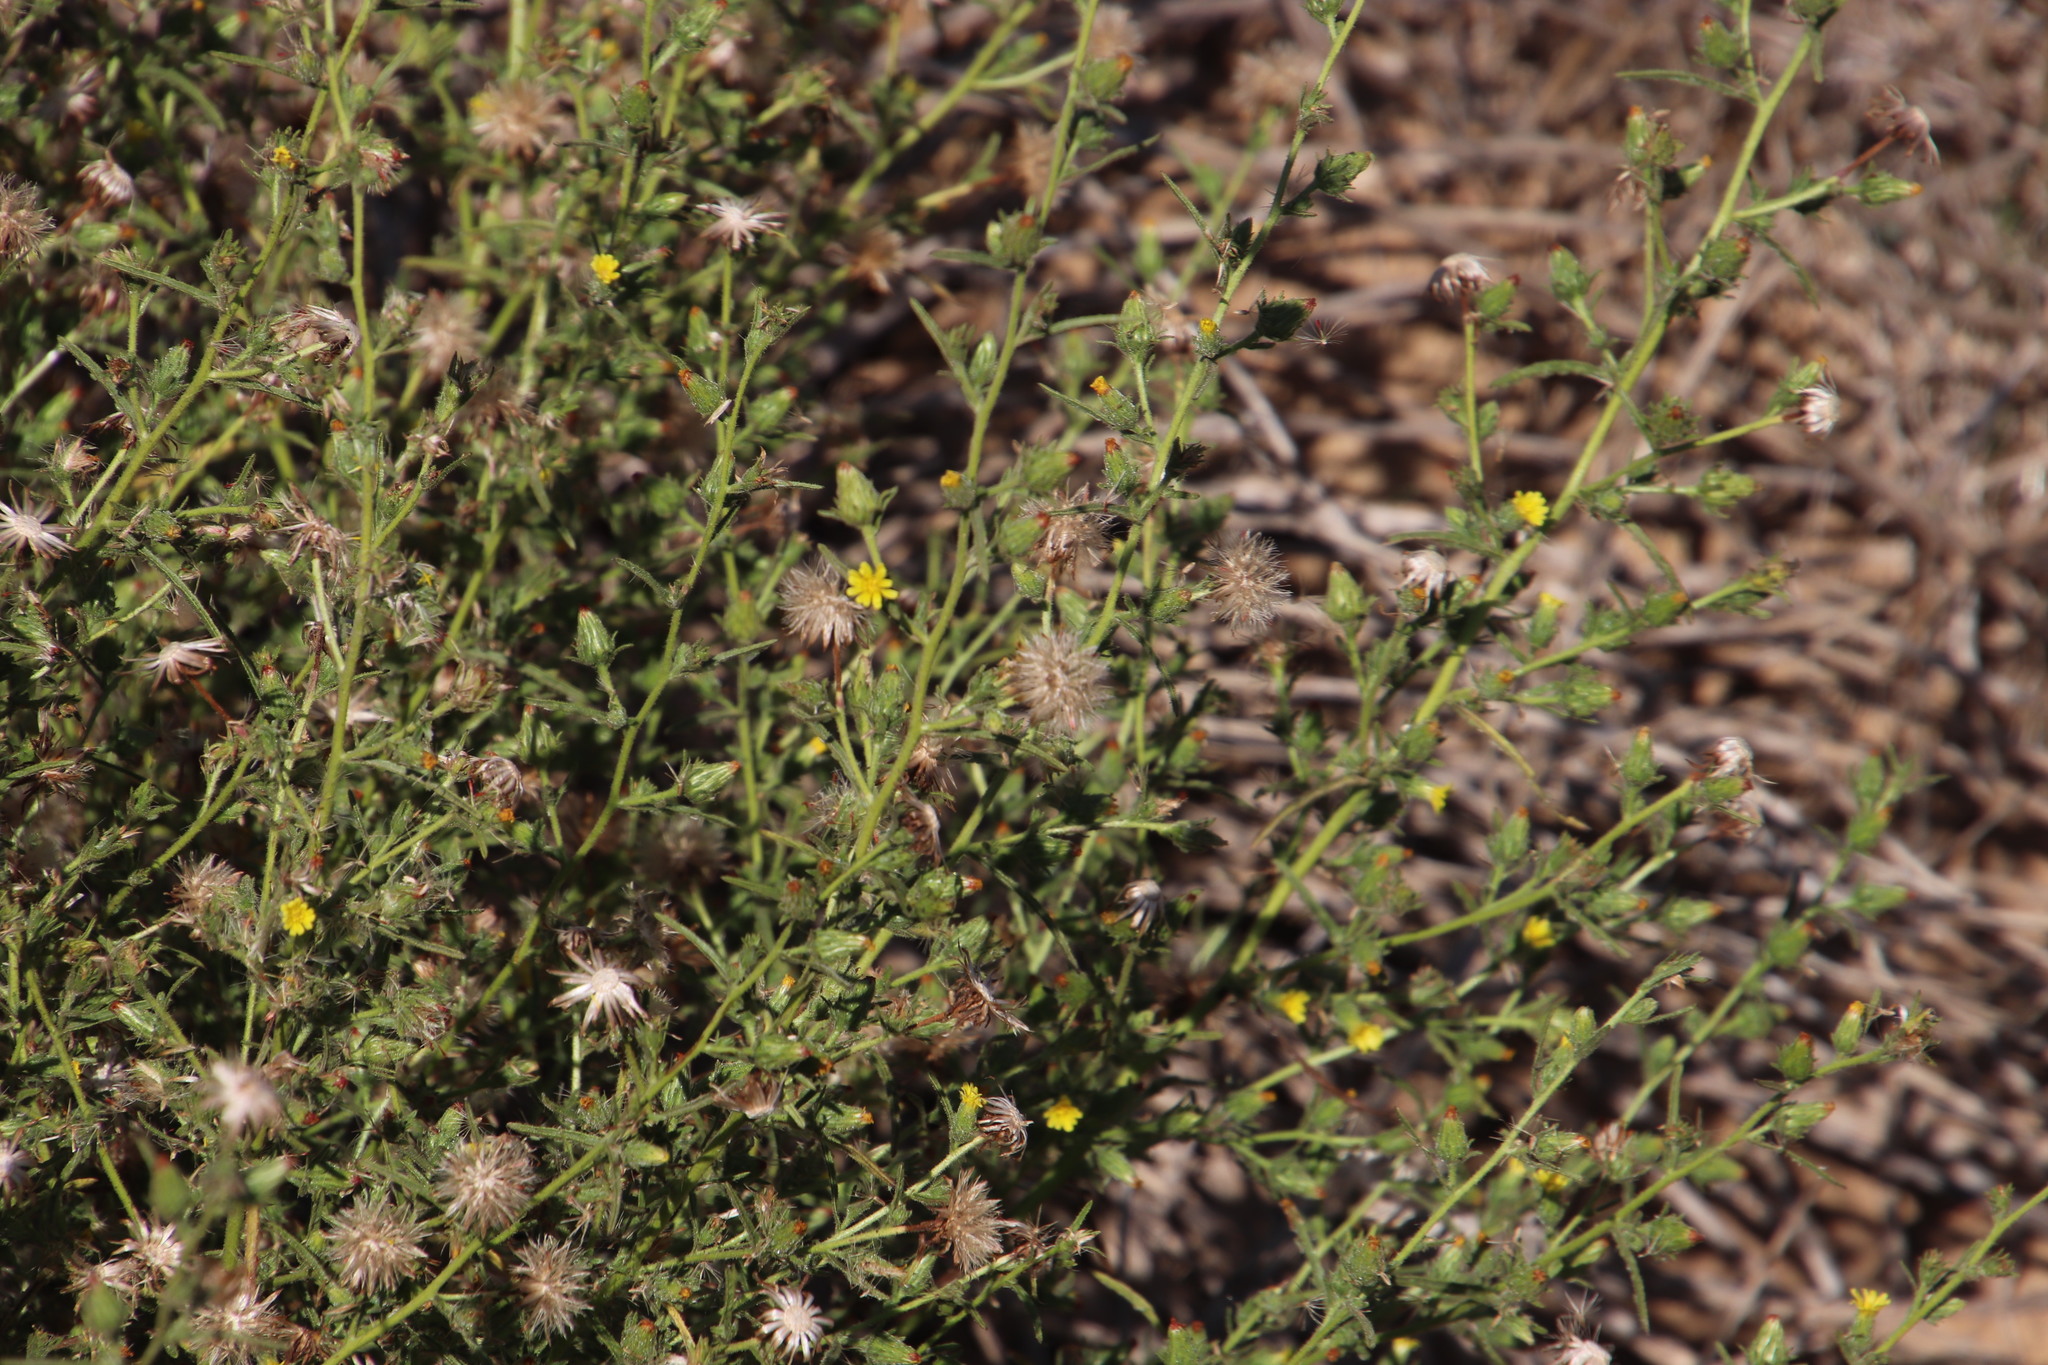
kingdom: Plantae
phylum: Tracheophyta
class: Magnoliopsida
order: Asterales
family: Asteraceae
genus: Dittrichia
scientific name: Dittrichia graveolens
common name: Stinking fleabane
